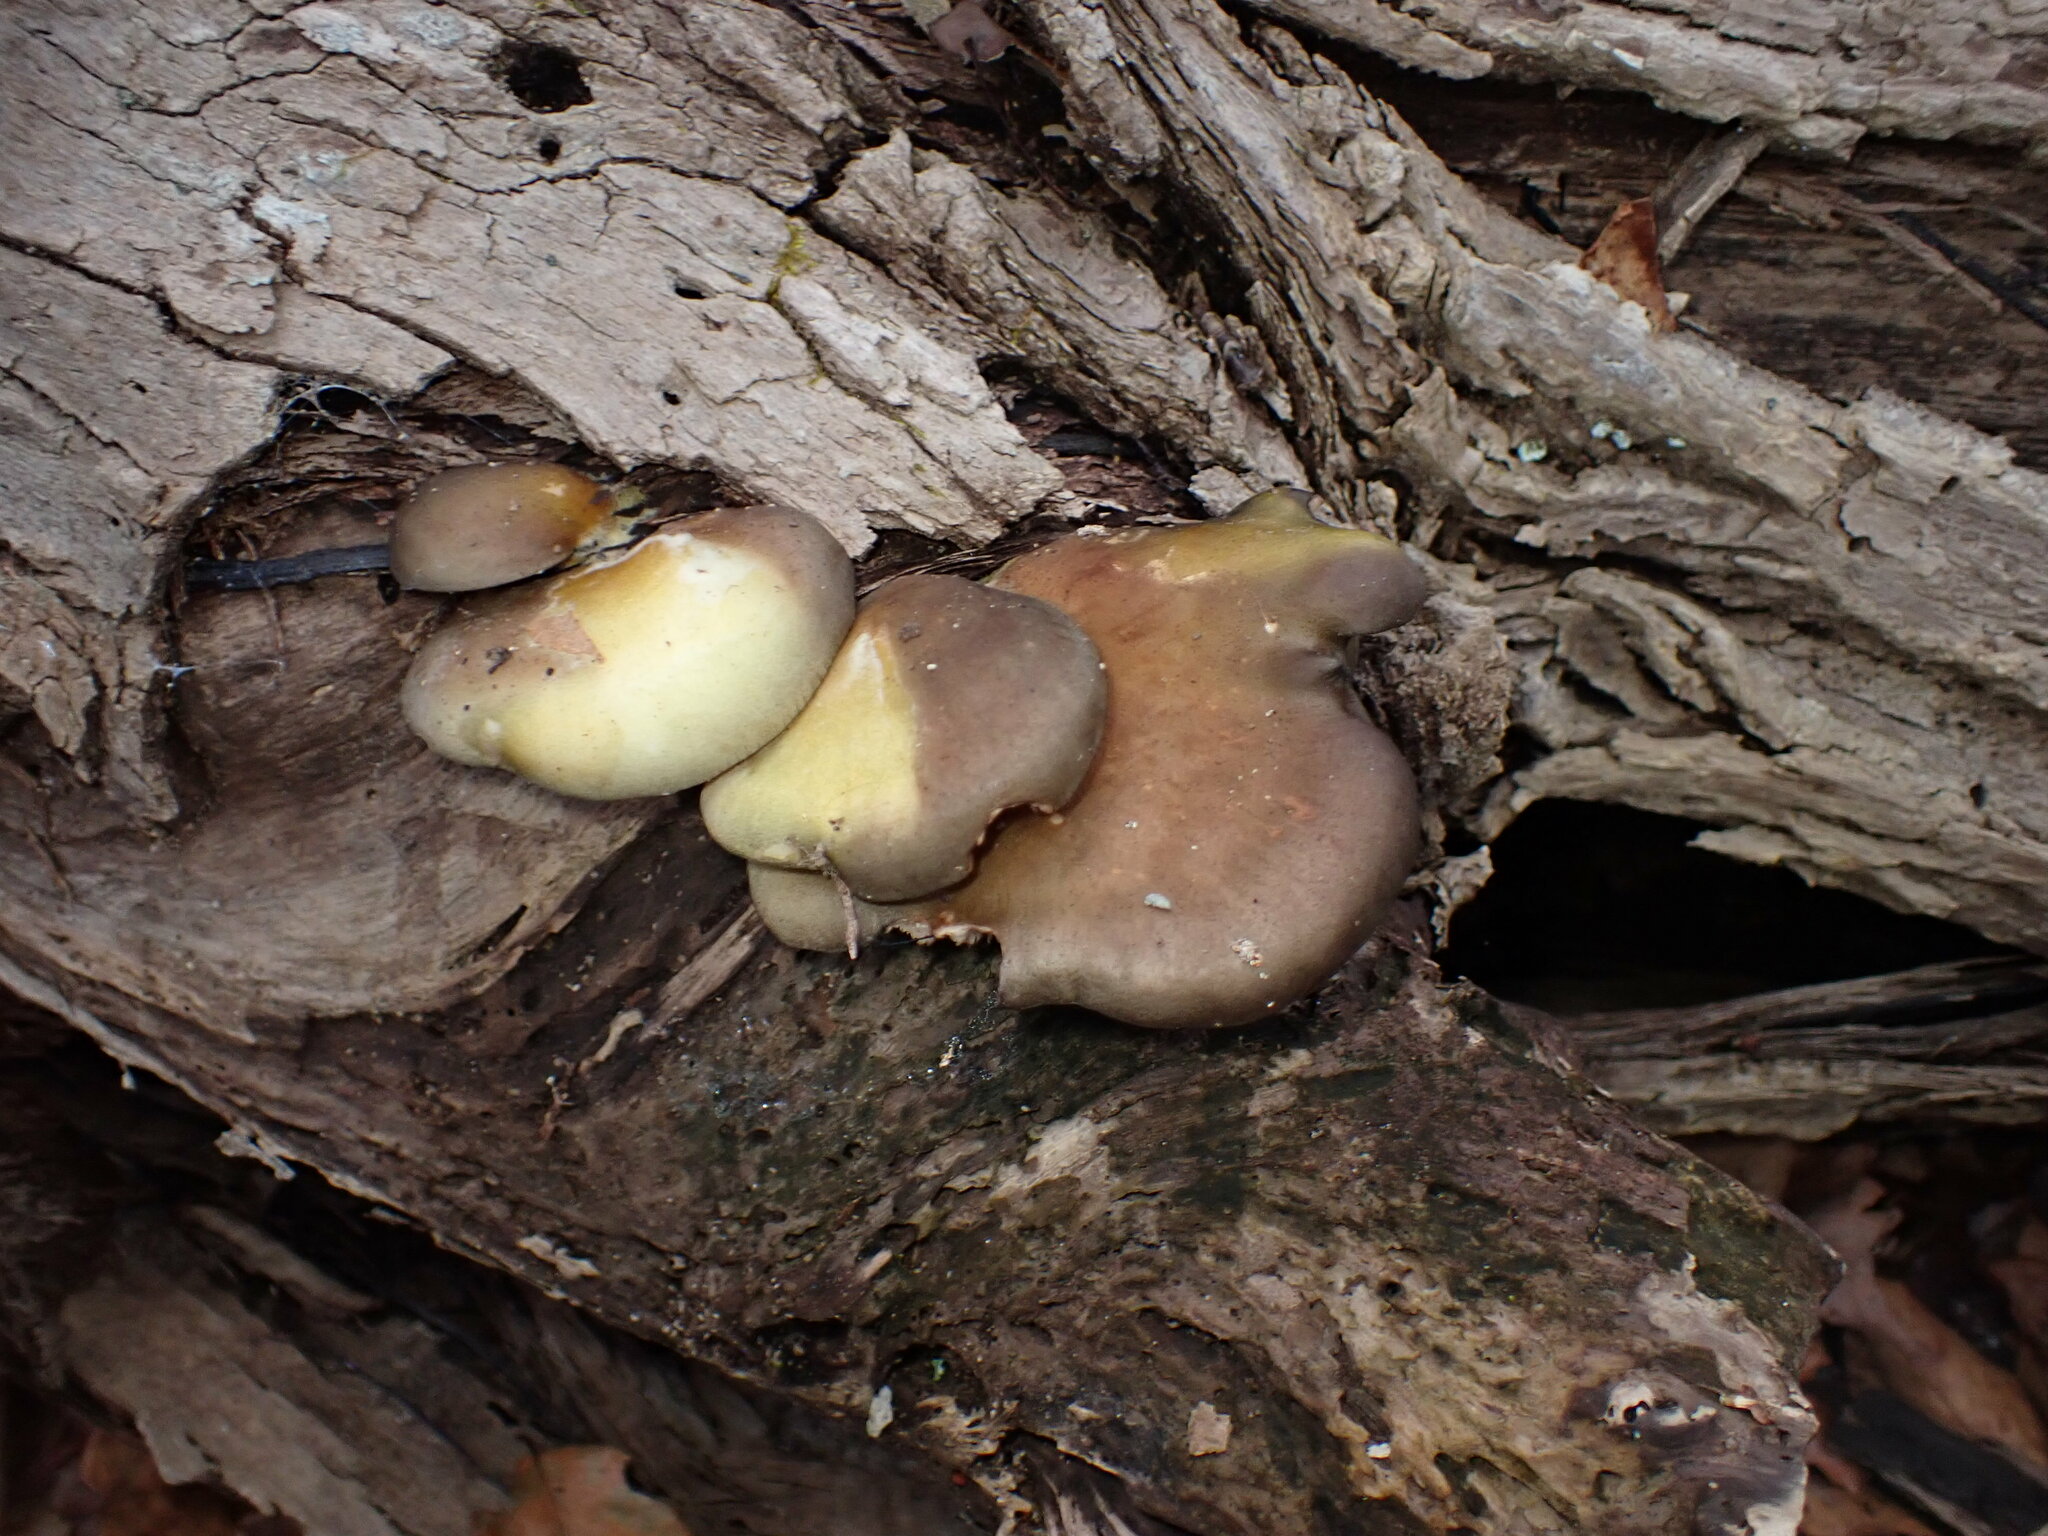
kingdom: Fungi
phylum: Basidiomycota
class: Agaricomycetes
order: Agaricales
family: Sarcomyxaceae
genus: Sarcomyxa
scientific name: Sarcomyxa serotina
